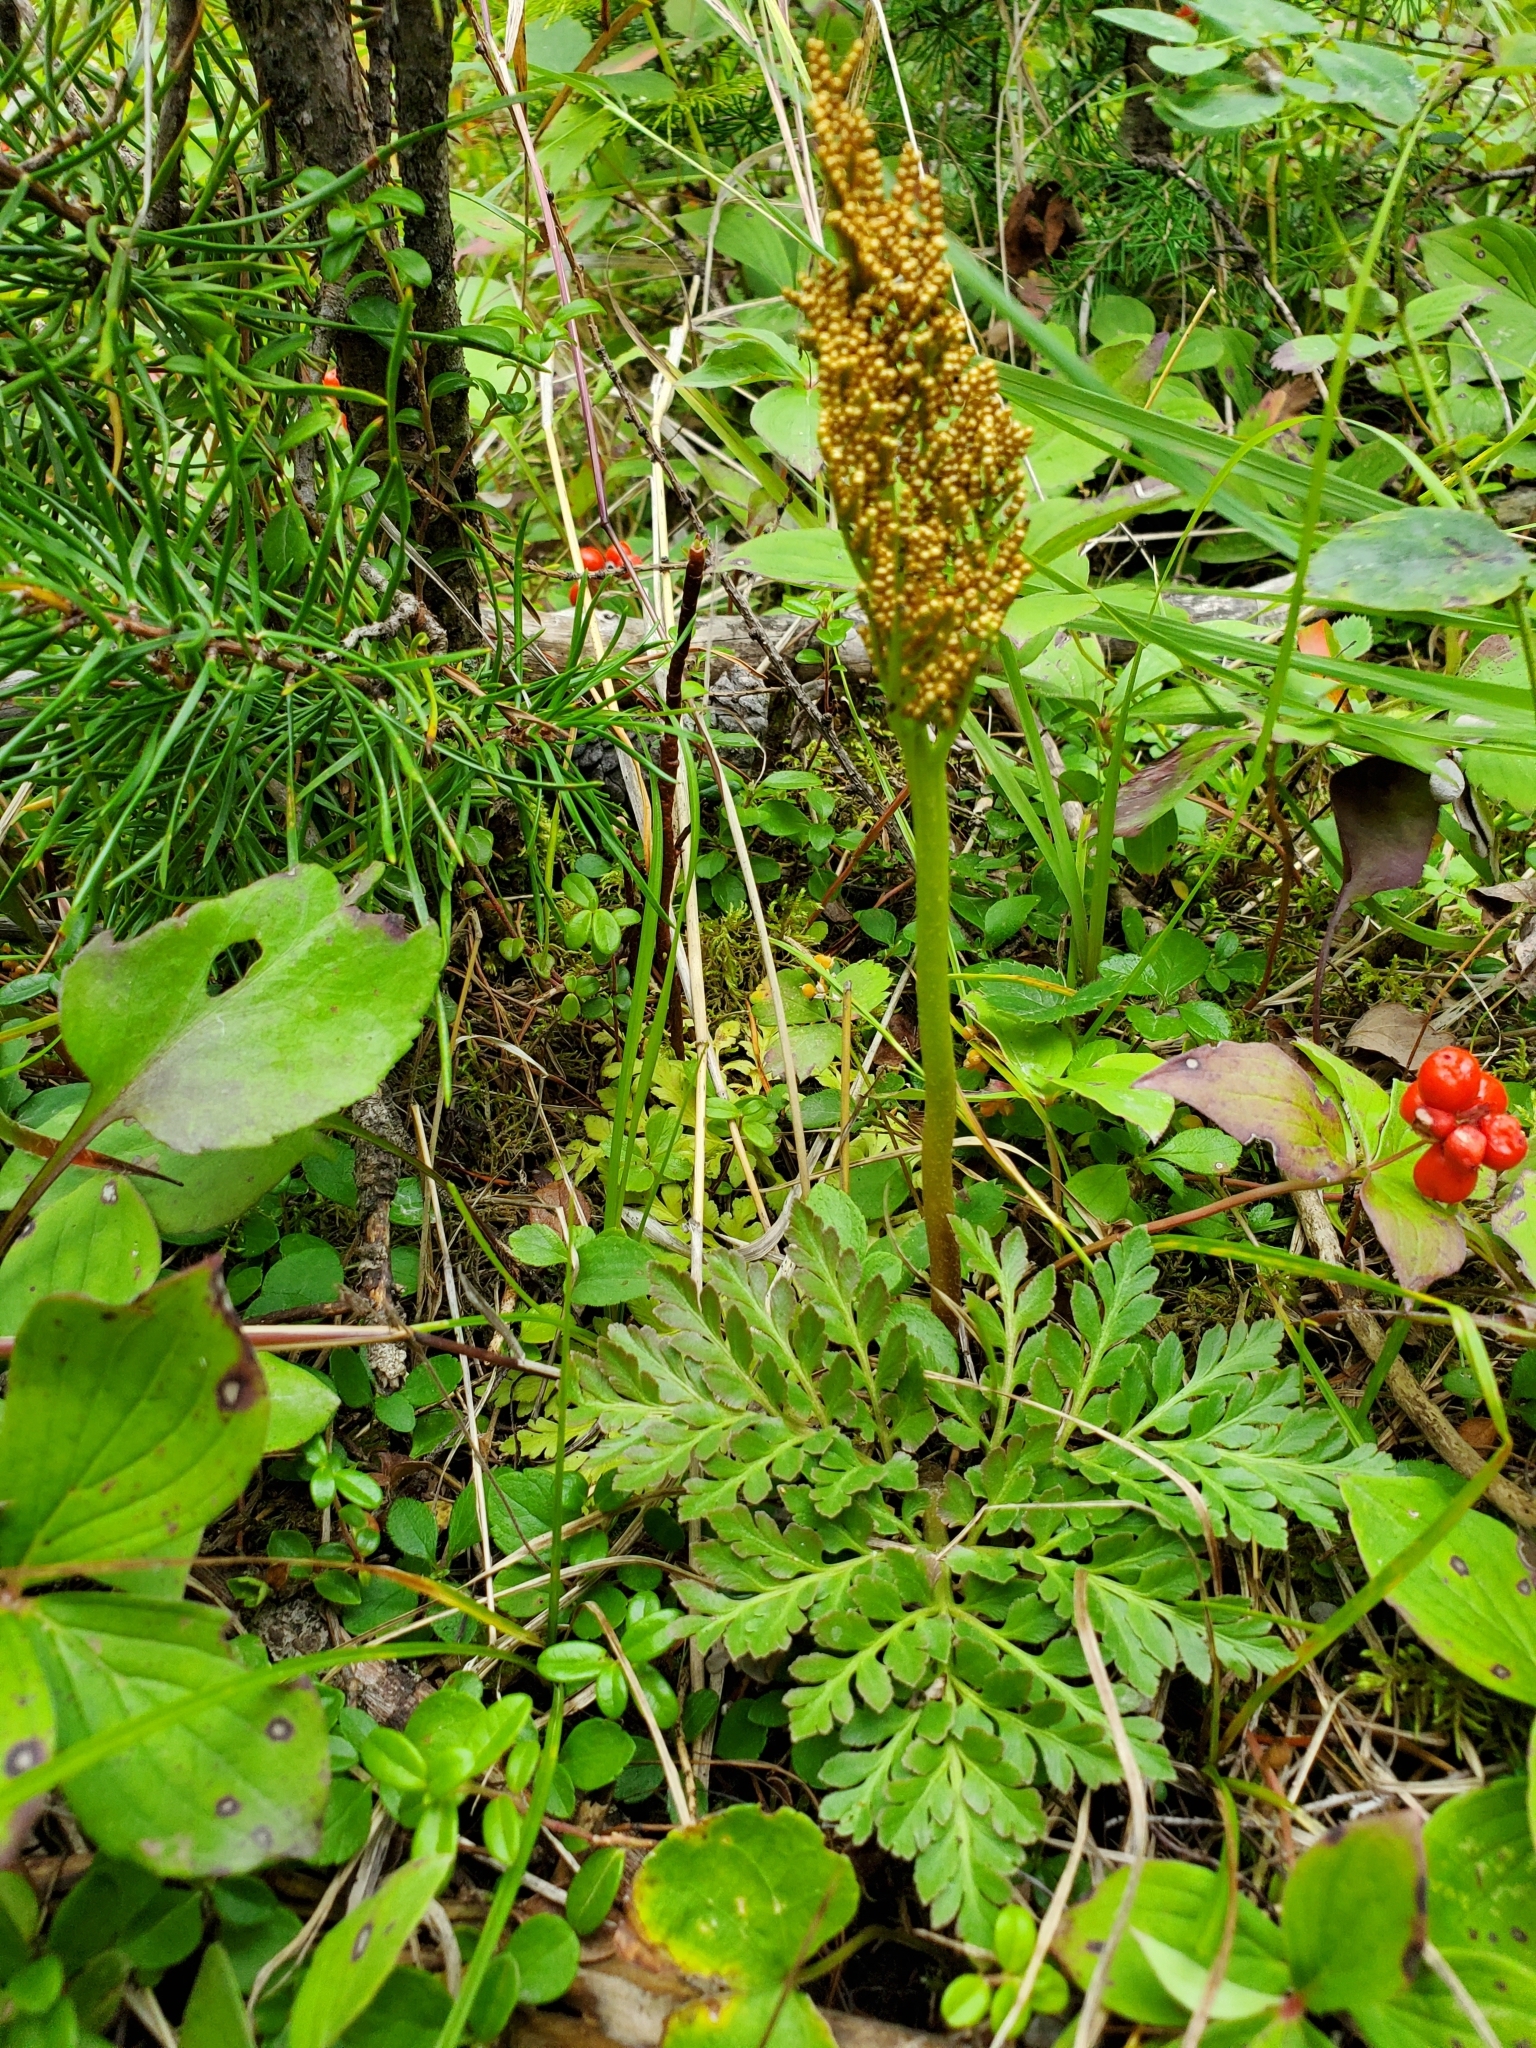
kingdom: Plantae
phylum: Tracheophyta
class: Polypodiopsida
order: Ophioglossales
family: Ophioglossaceae
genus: Sceptridium
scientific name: Sceptridium multifidum
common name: Leathery grape fern
